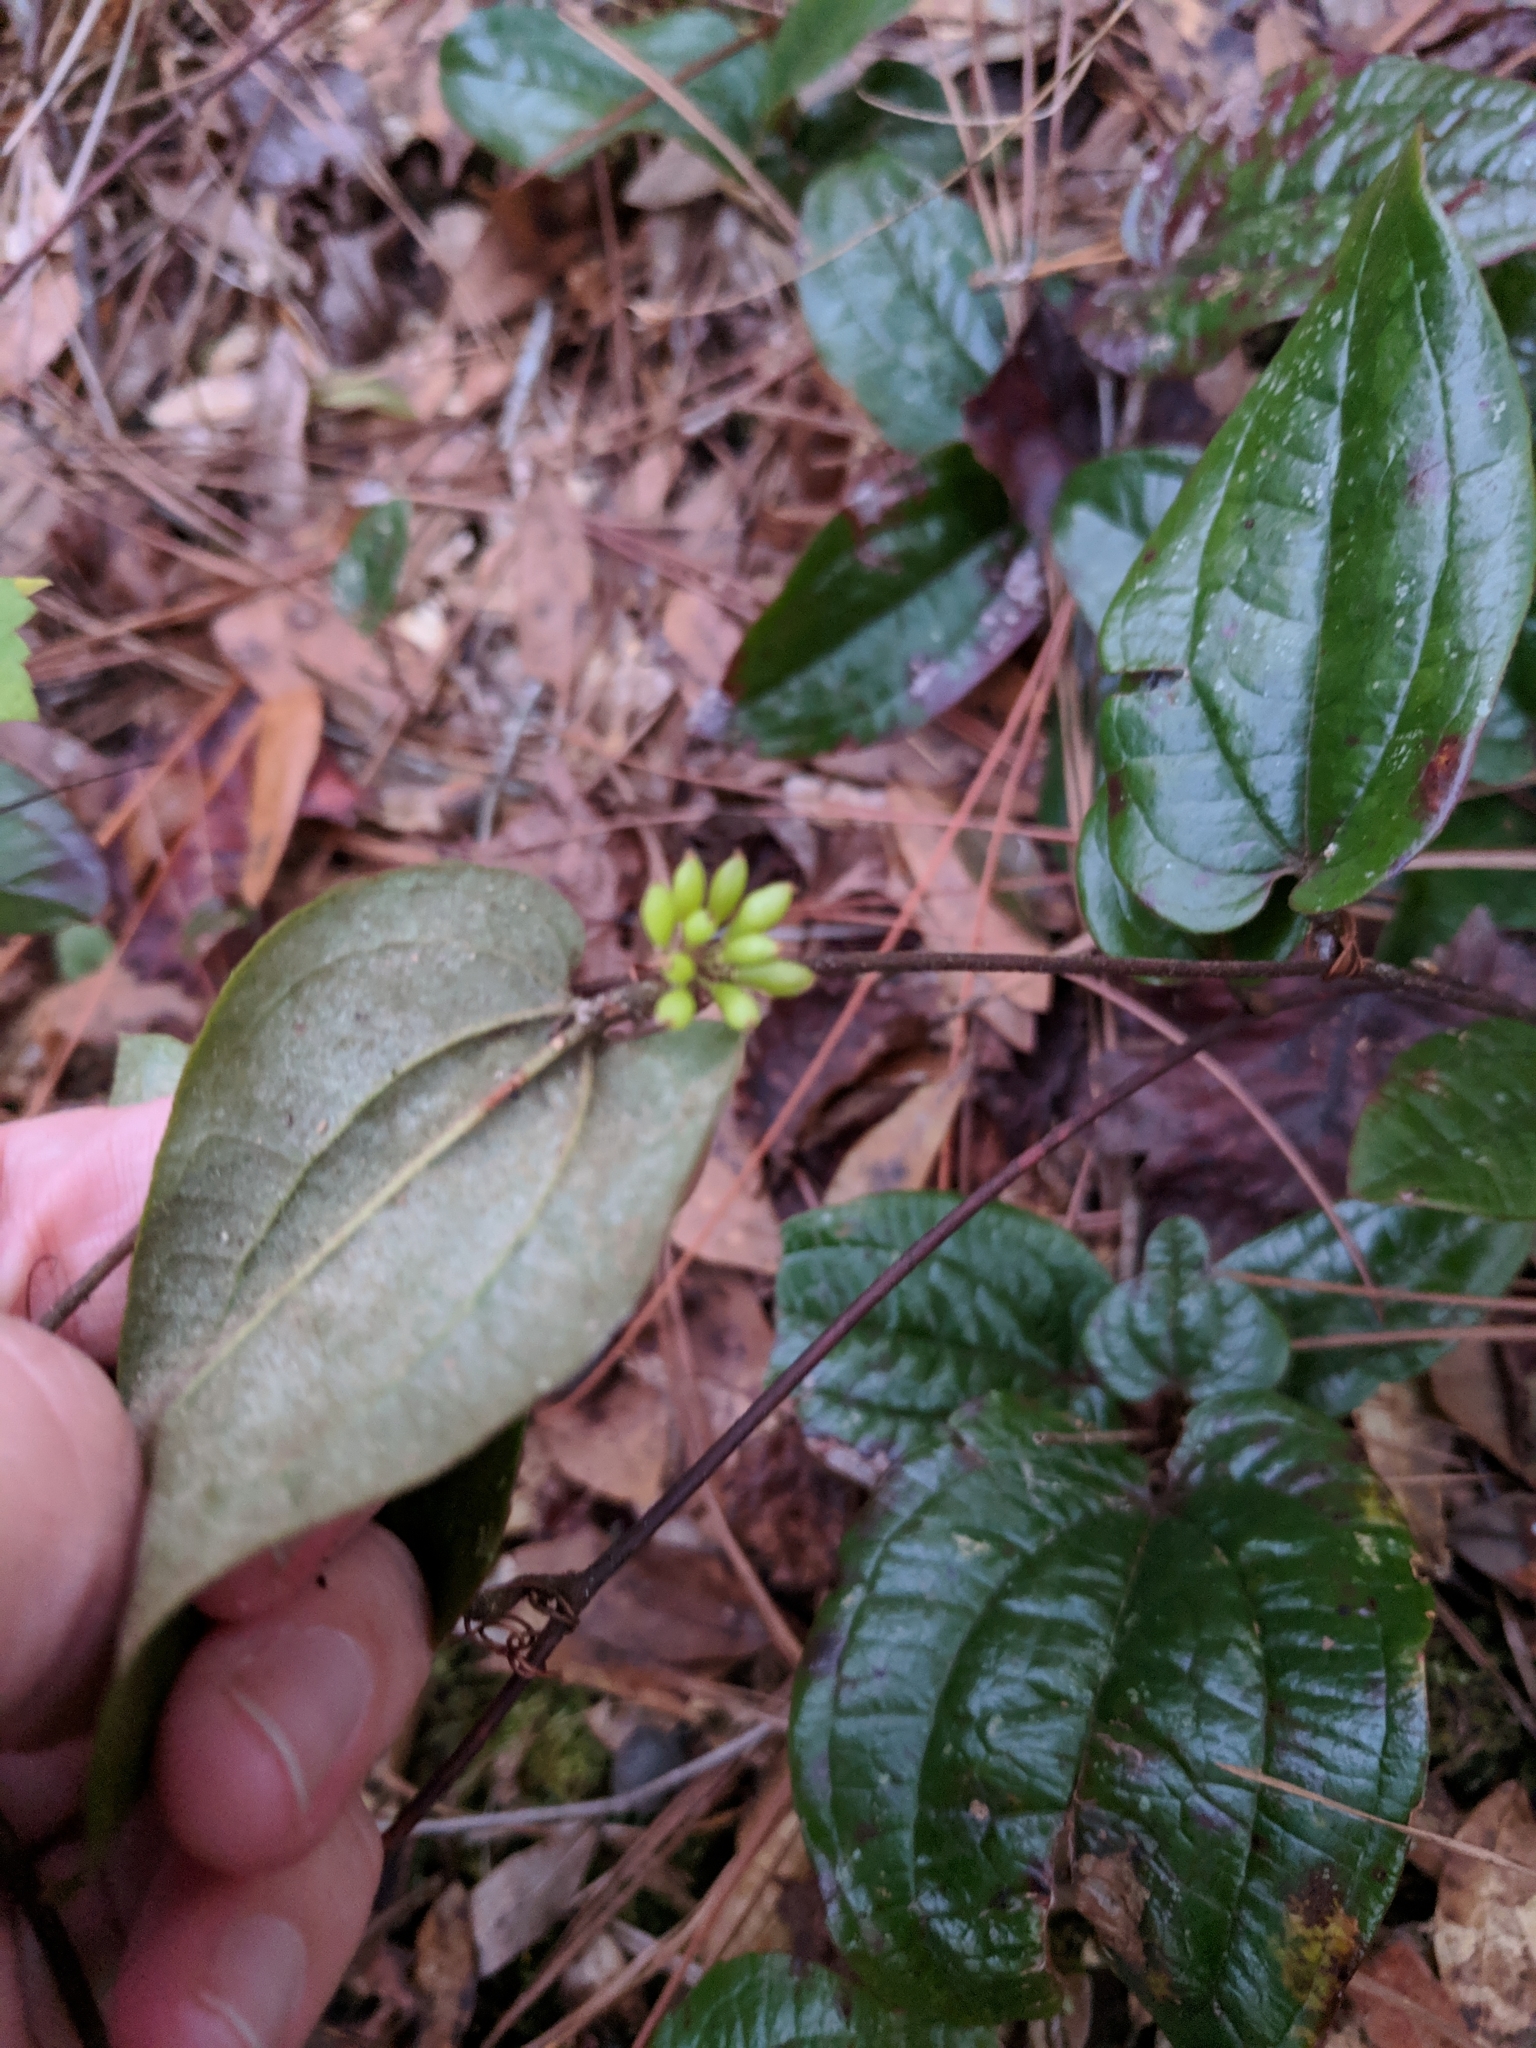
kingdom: Plantae
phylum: Tracheophyta
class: Liliopsida
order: Liliales
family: Smilacaceae
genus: Smilax
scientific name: Smilax pumila
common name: Sarsaparilla-vine
